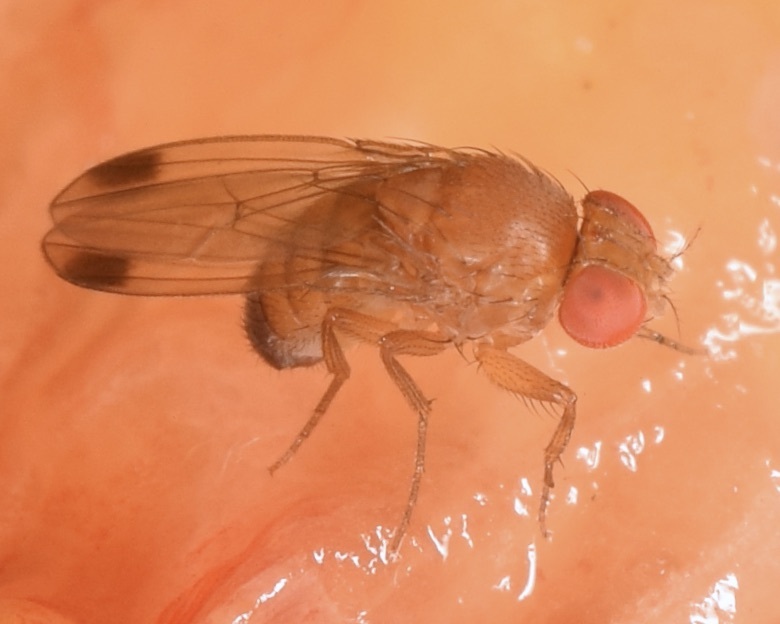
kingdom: Animalia
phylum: Arthropoda
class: Insecta
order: Diptera
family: Drosophilidae
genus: Drosophila
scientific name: Drosophila suzukii
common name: Spotted-wing drosophila
